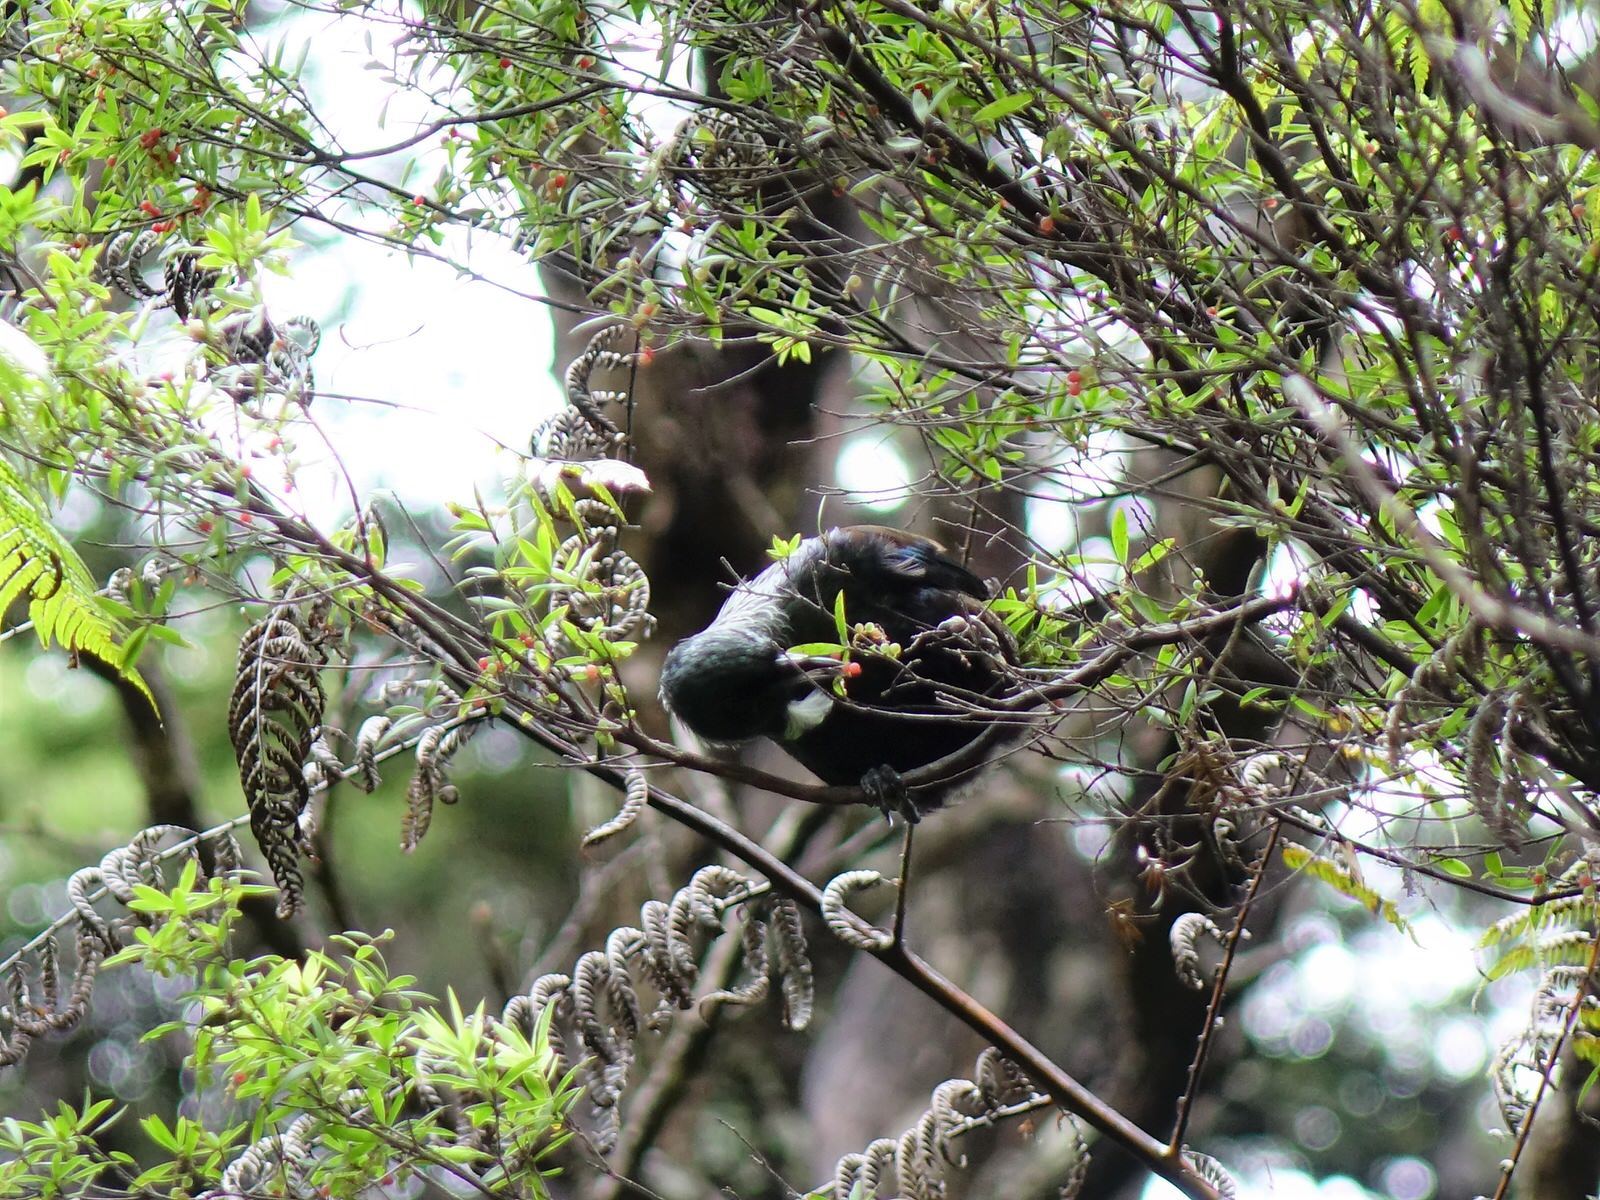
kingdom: Animalia
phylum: Chordata
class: Aves
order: Passeriformes
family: Meliphagidae
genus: Prosthemadera
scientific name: Prosthemadera novaeseelandiae
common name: Tui
